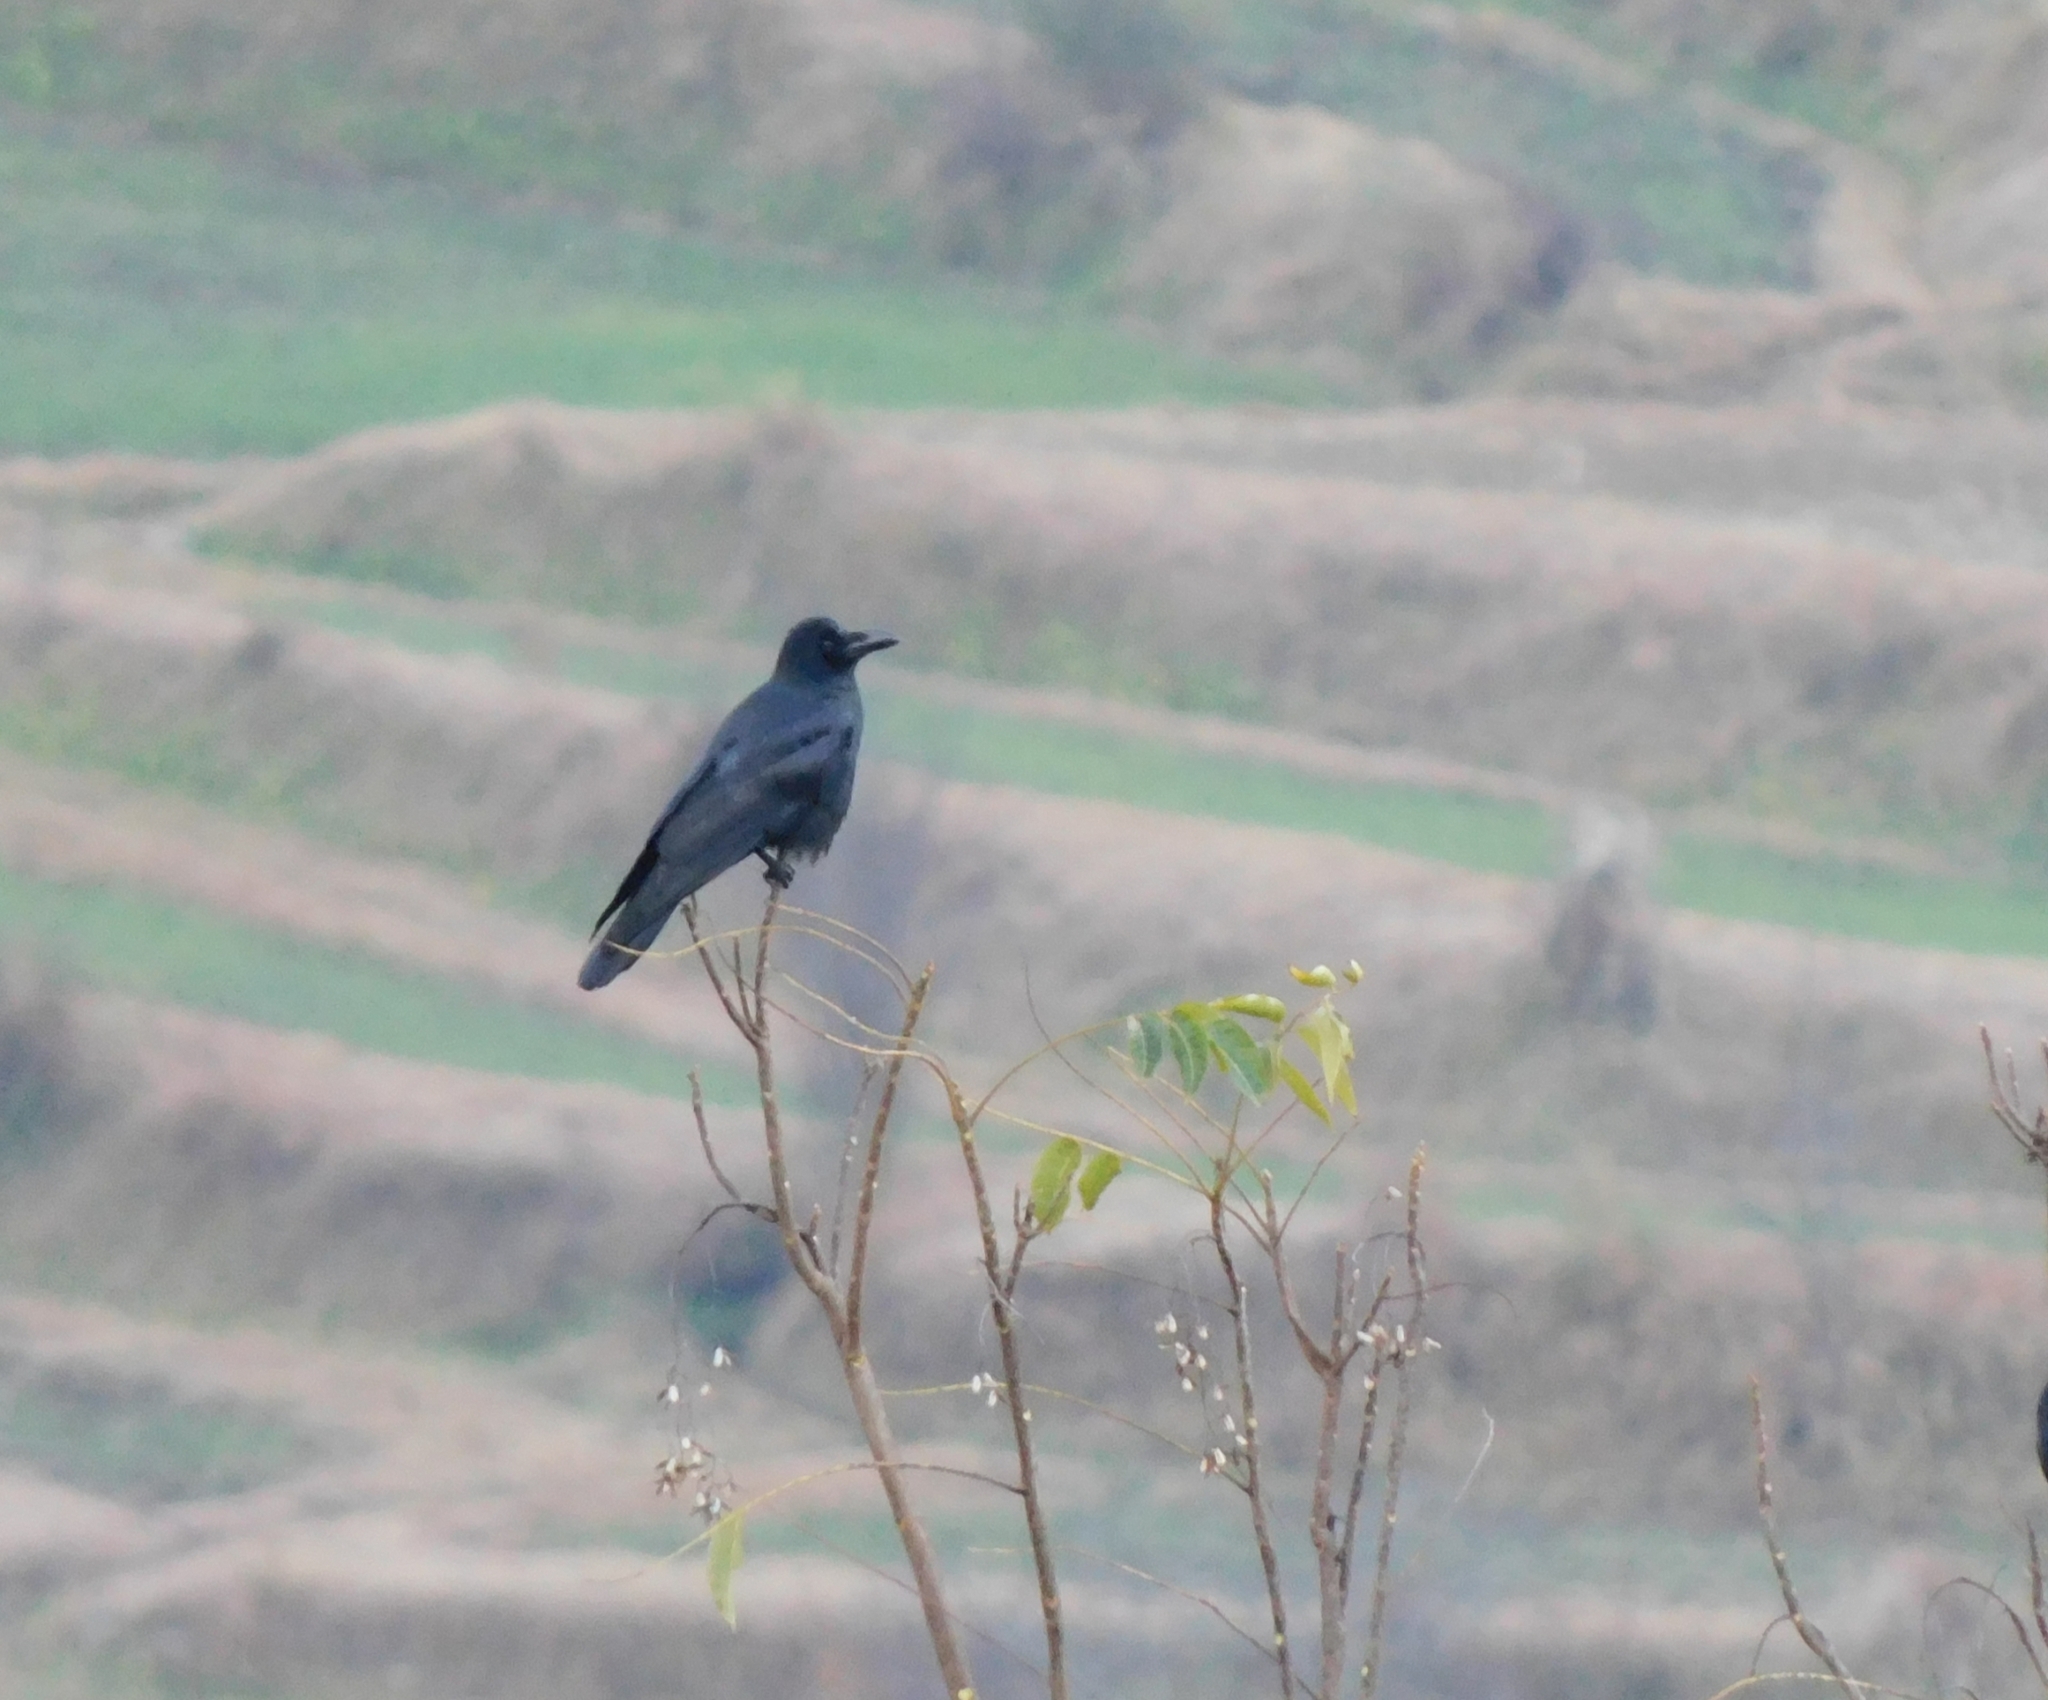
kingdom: Animalia
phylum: Chordata
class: Aves
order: Passeriformes
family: Corvidae
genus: Corvus
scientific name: Corvus macrorhynchos
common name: Large-billed crow
